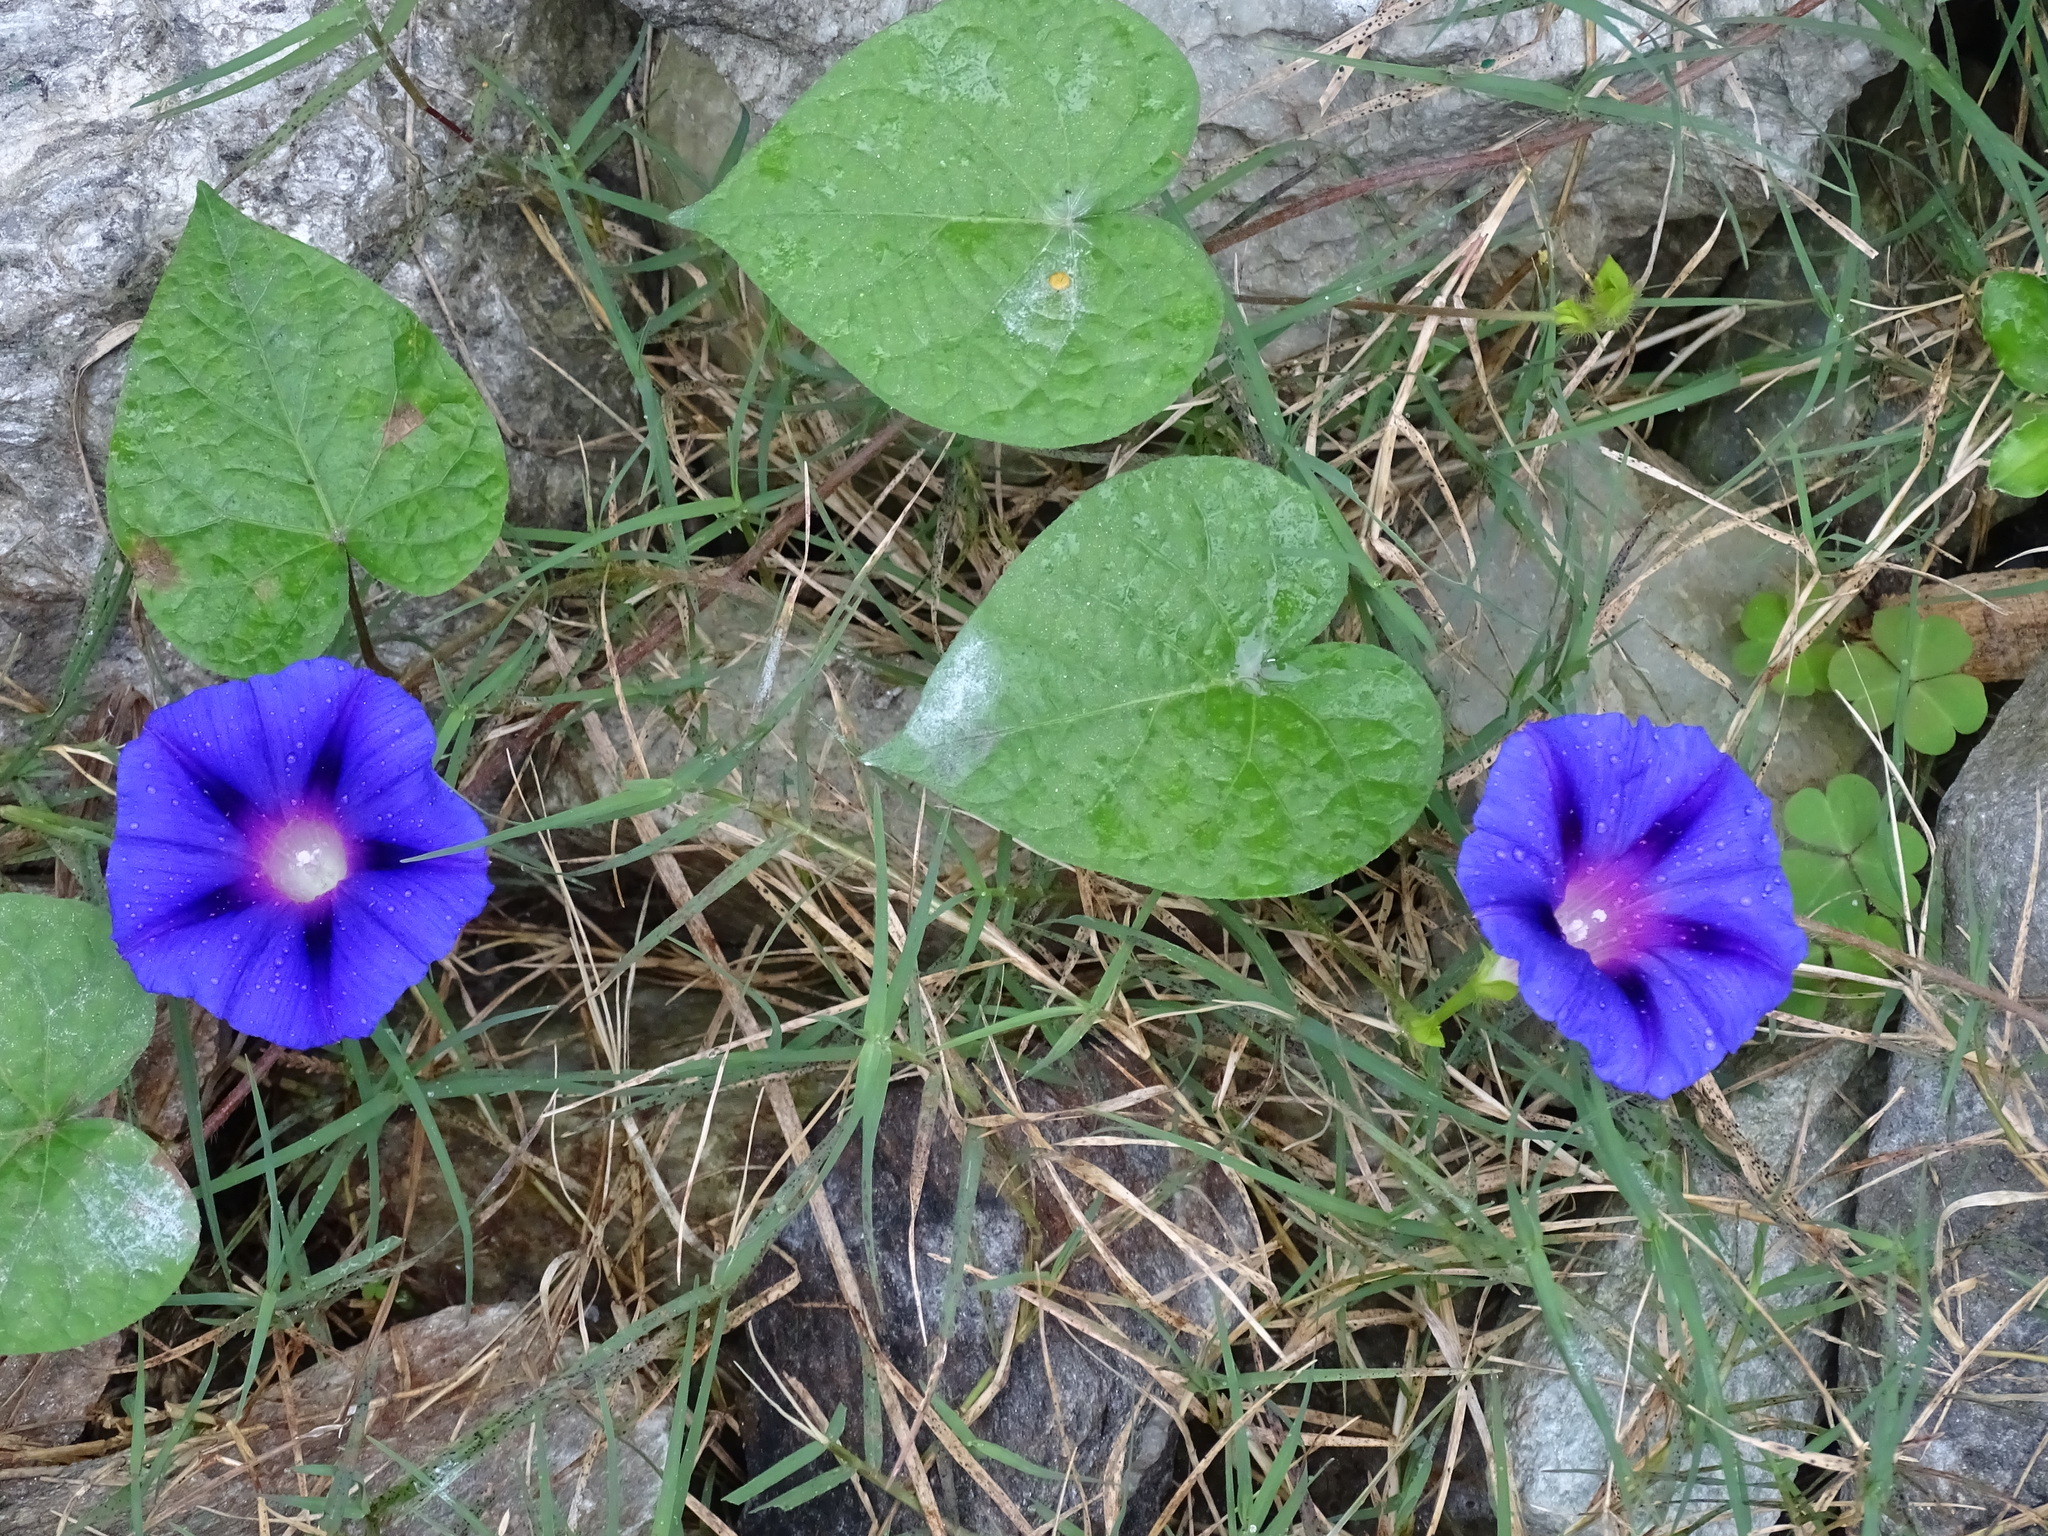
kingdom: Plantae
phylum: Tracheophyta
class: Magnoliopsida
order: Solanales
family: Convolvulaceae
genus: Ipomoea
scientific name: Ipomoea purpurea
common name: Common morning-glory
